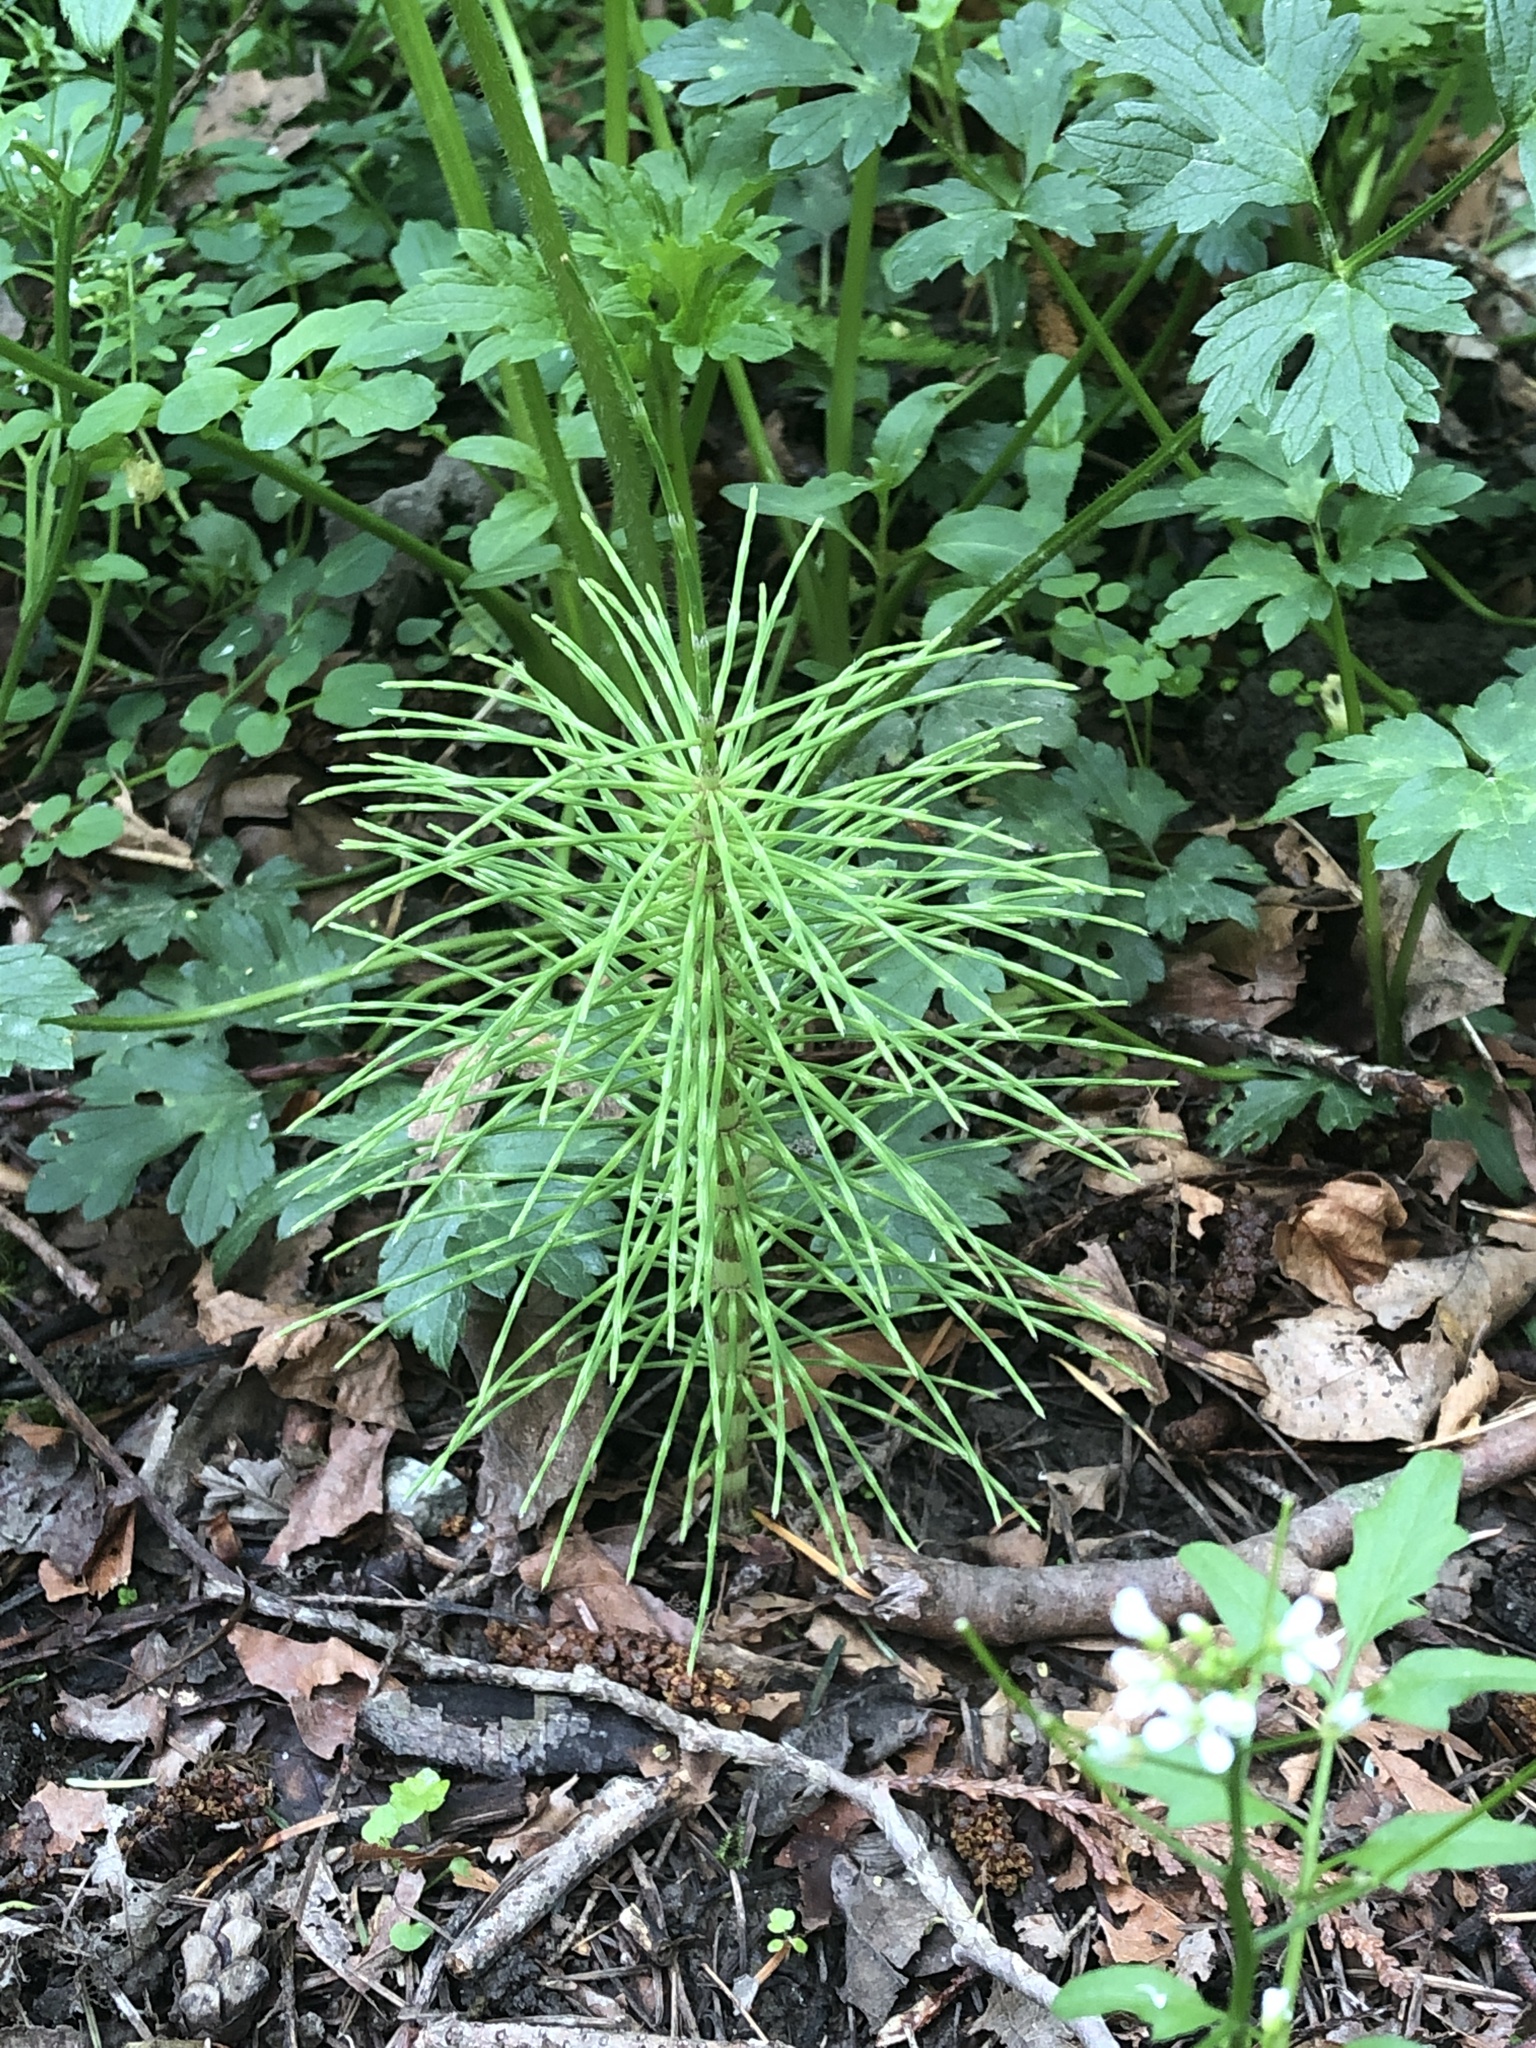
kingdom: Plantae
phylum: Tracheophyta
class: Polypodiopsida
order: Equisetales
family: Equisetaceae
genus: Equisetum
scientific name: Equisetum telmateia
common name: Great horsetail
